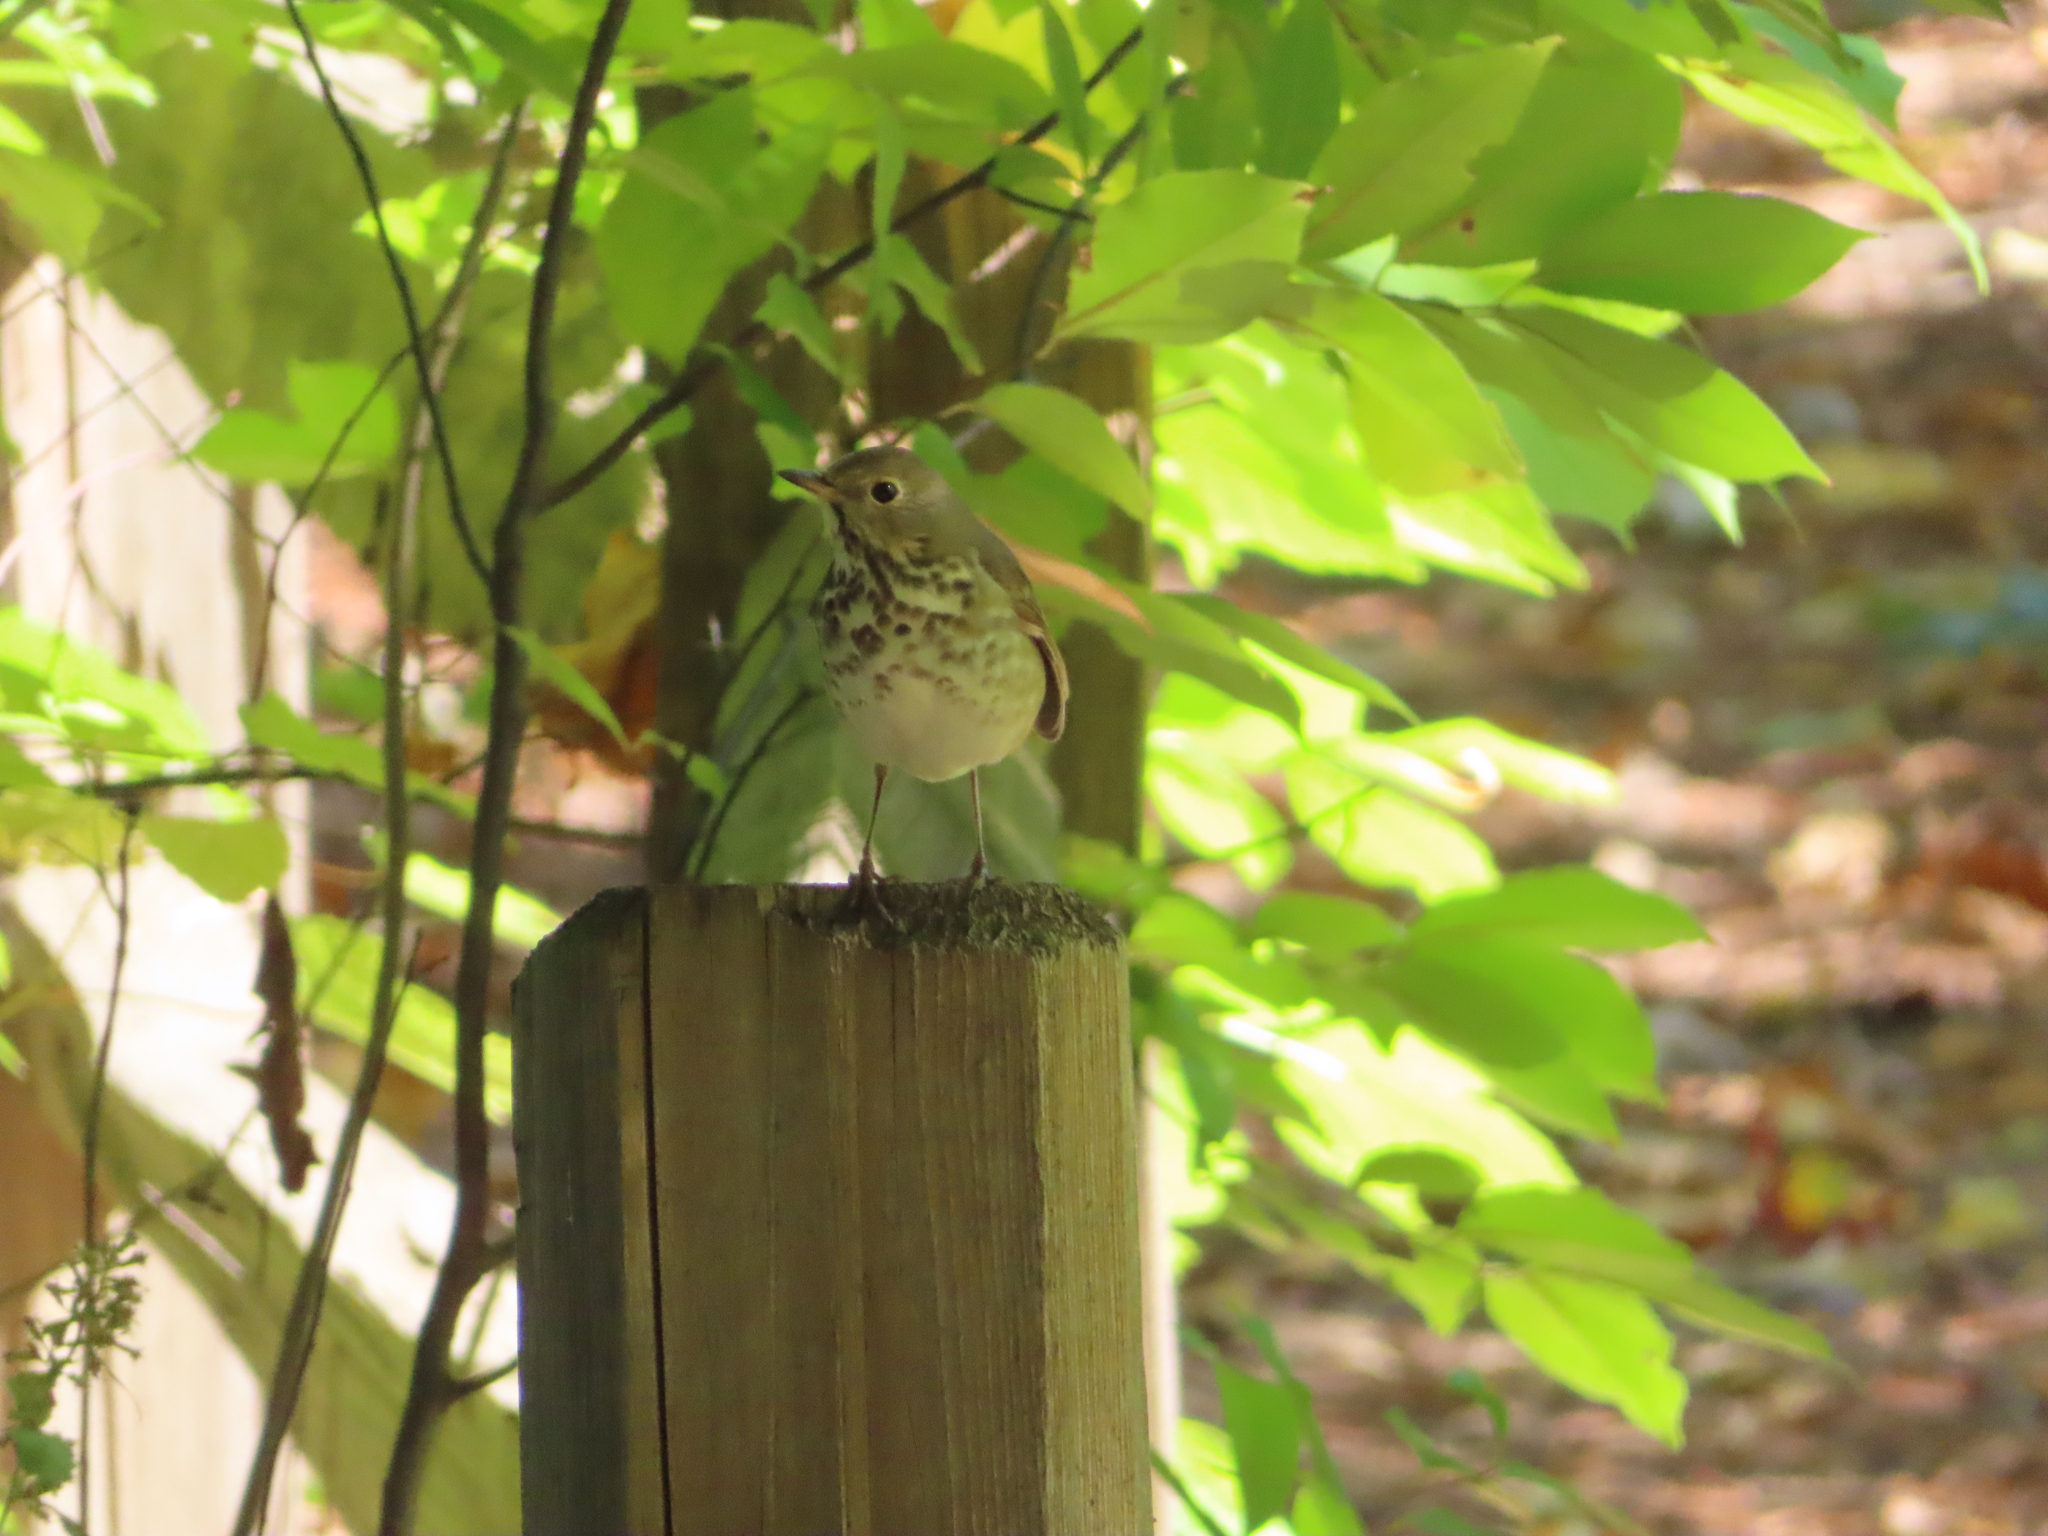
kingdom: Animalia
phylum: Chordata
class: Aves
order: Passeriformes
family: Turdidae
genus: Catharus
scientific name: Catharus guttatus
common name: Hermit thrush
